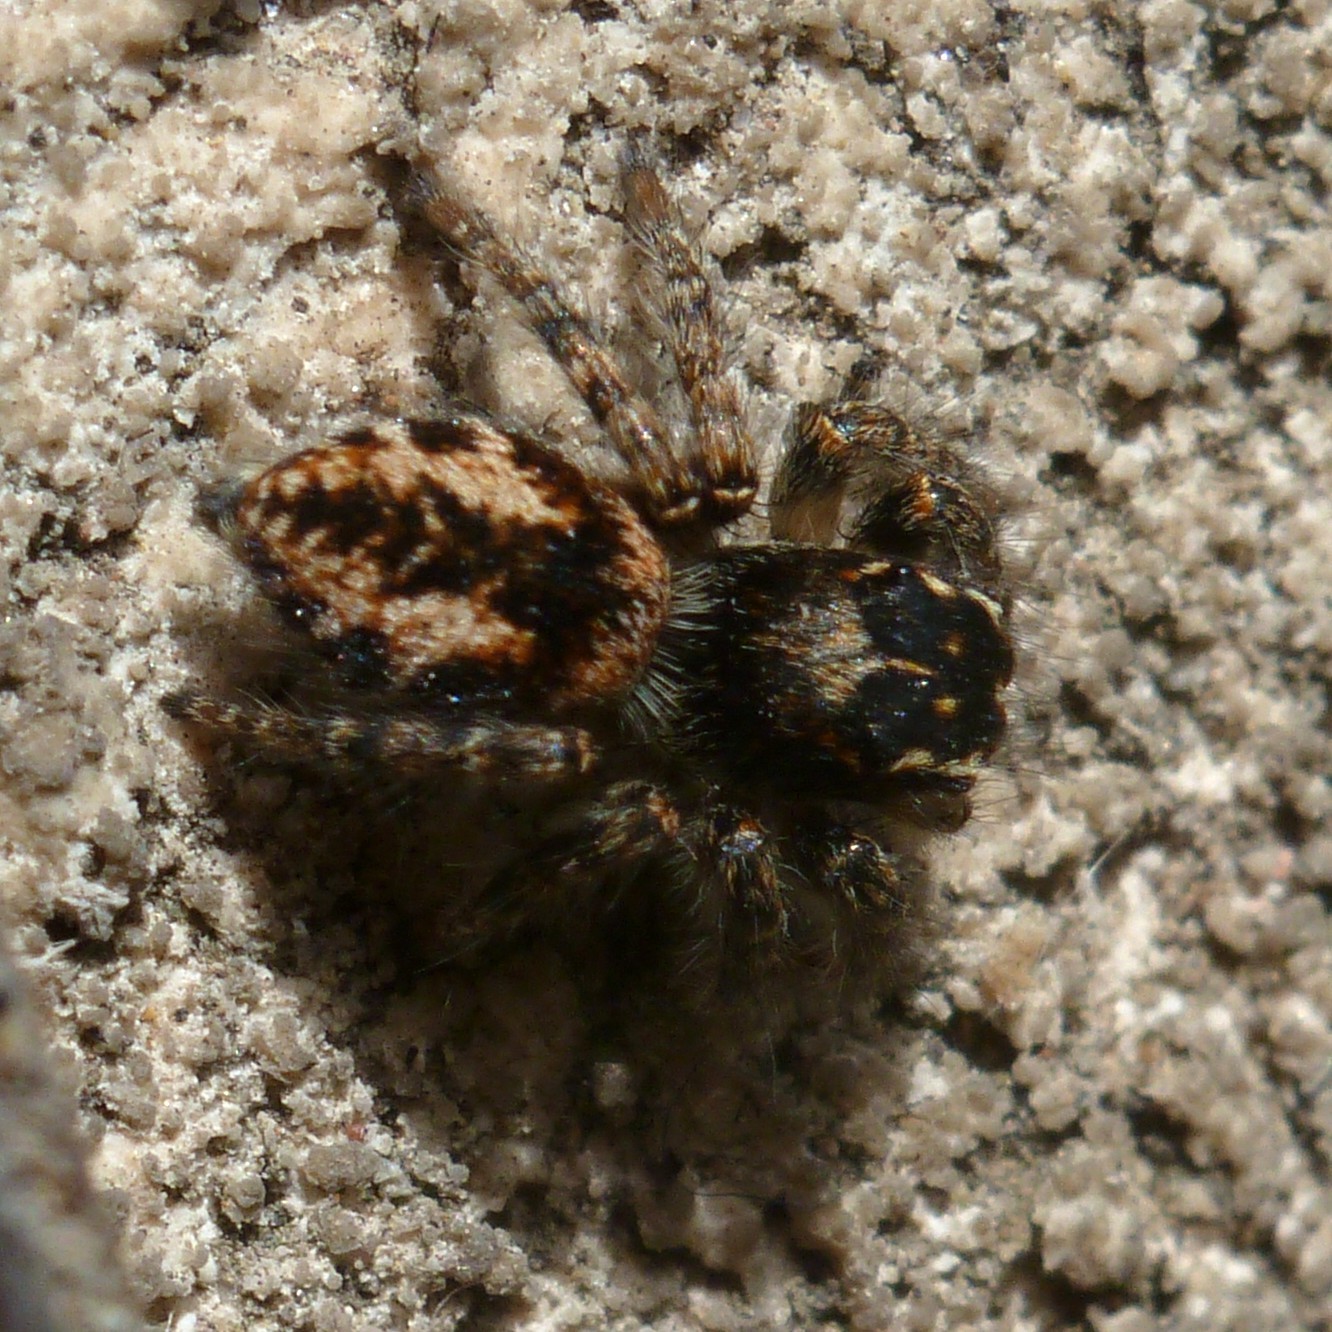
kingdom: Animalia
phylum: Arthropoda
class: Arachnida
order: Araneae
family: Salticidae
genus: Philaeus
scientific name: Philaeus chrysops
